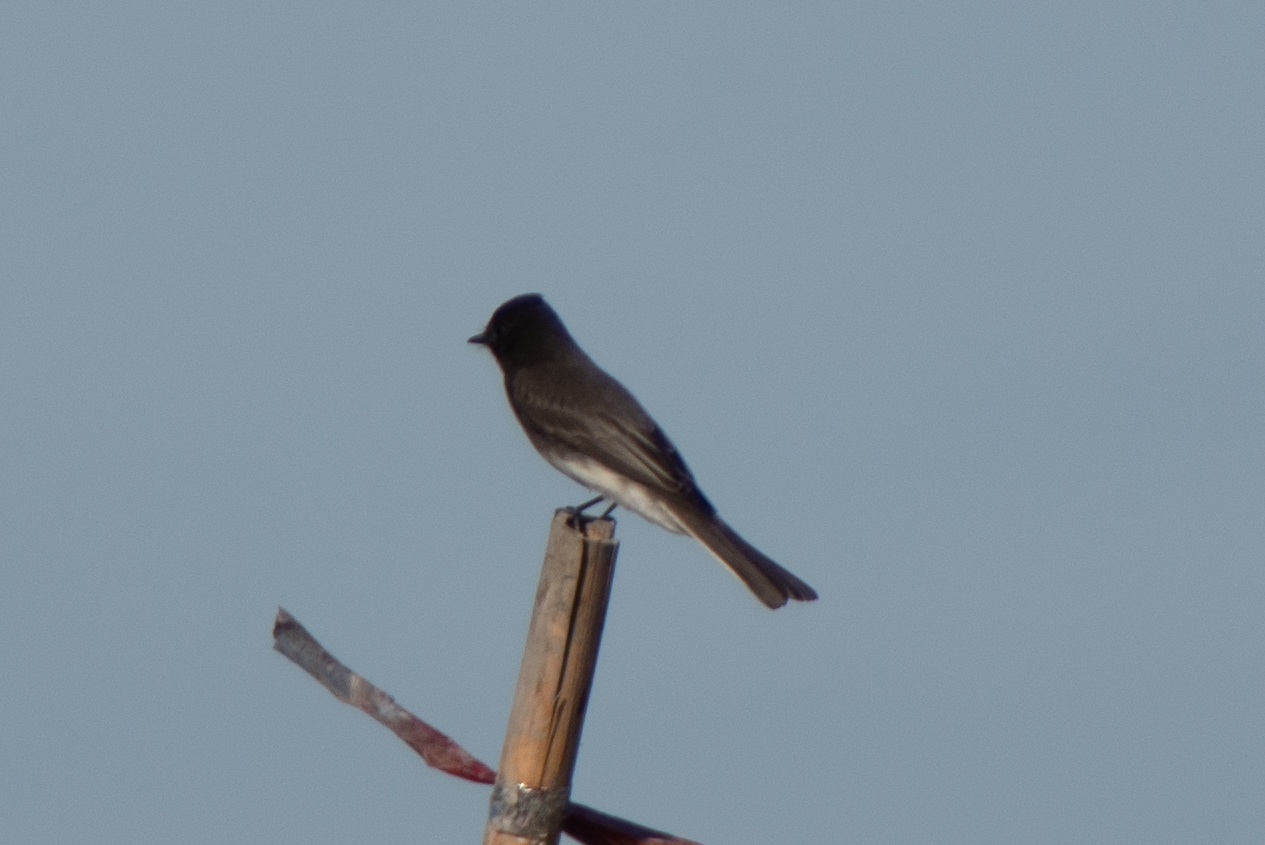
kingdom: Animalia
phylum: Chordata
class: Aves
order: Passeriformes
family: Tyrannidae
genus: Sayornis
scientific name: Sayornis nigricans
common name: Black phoebe
